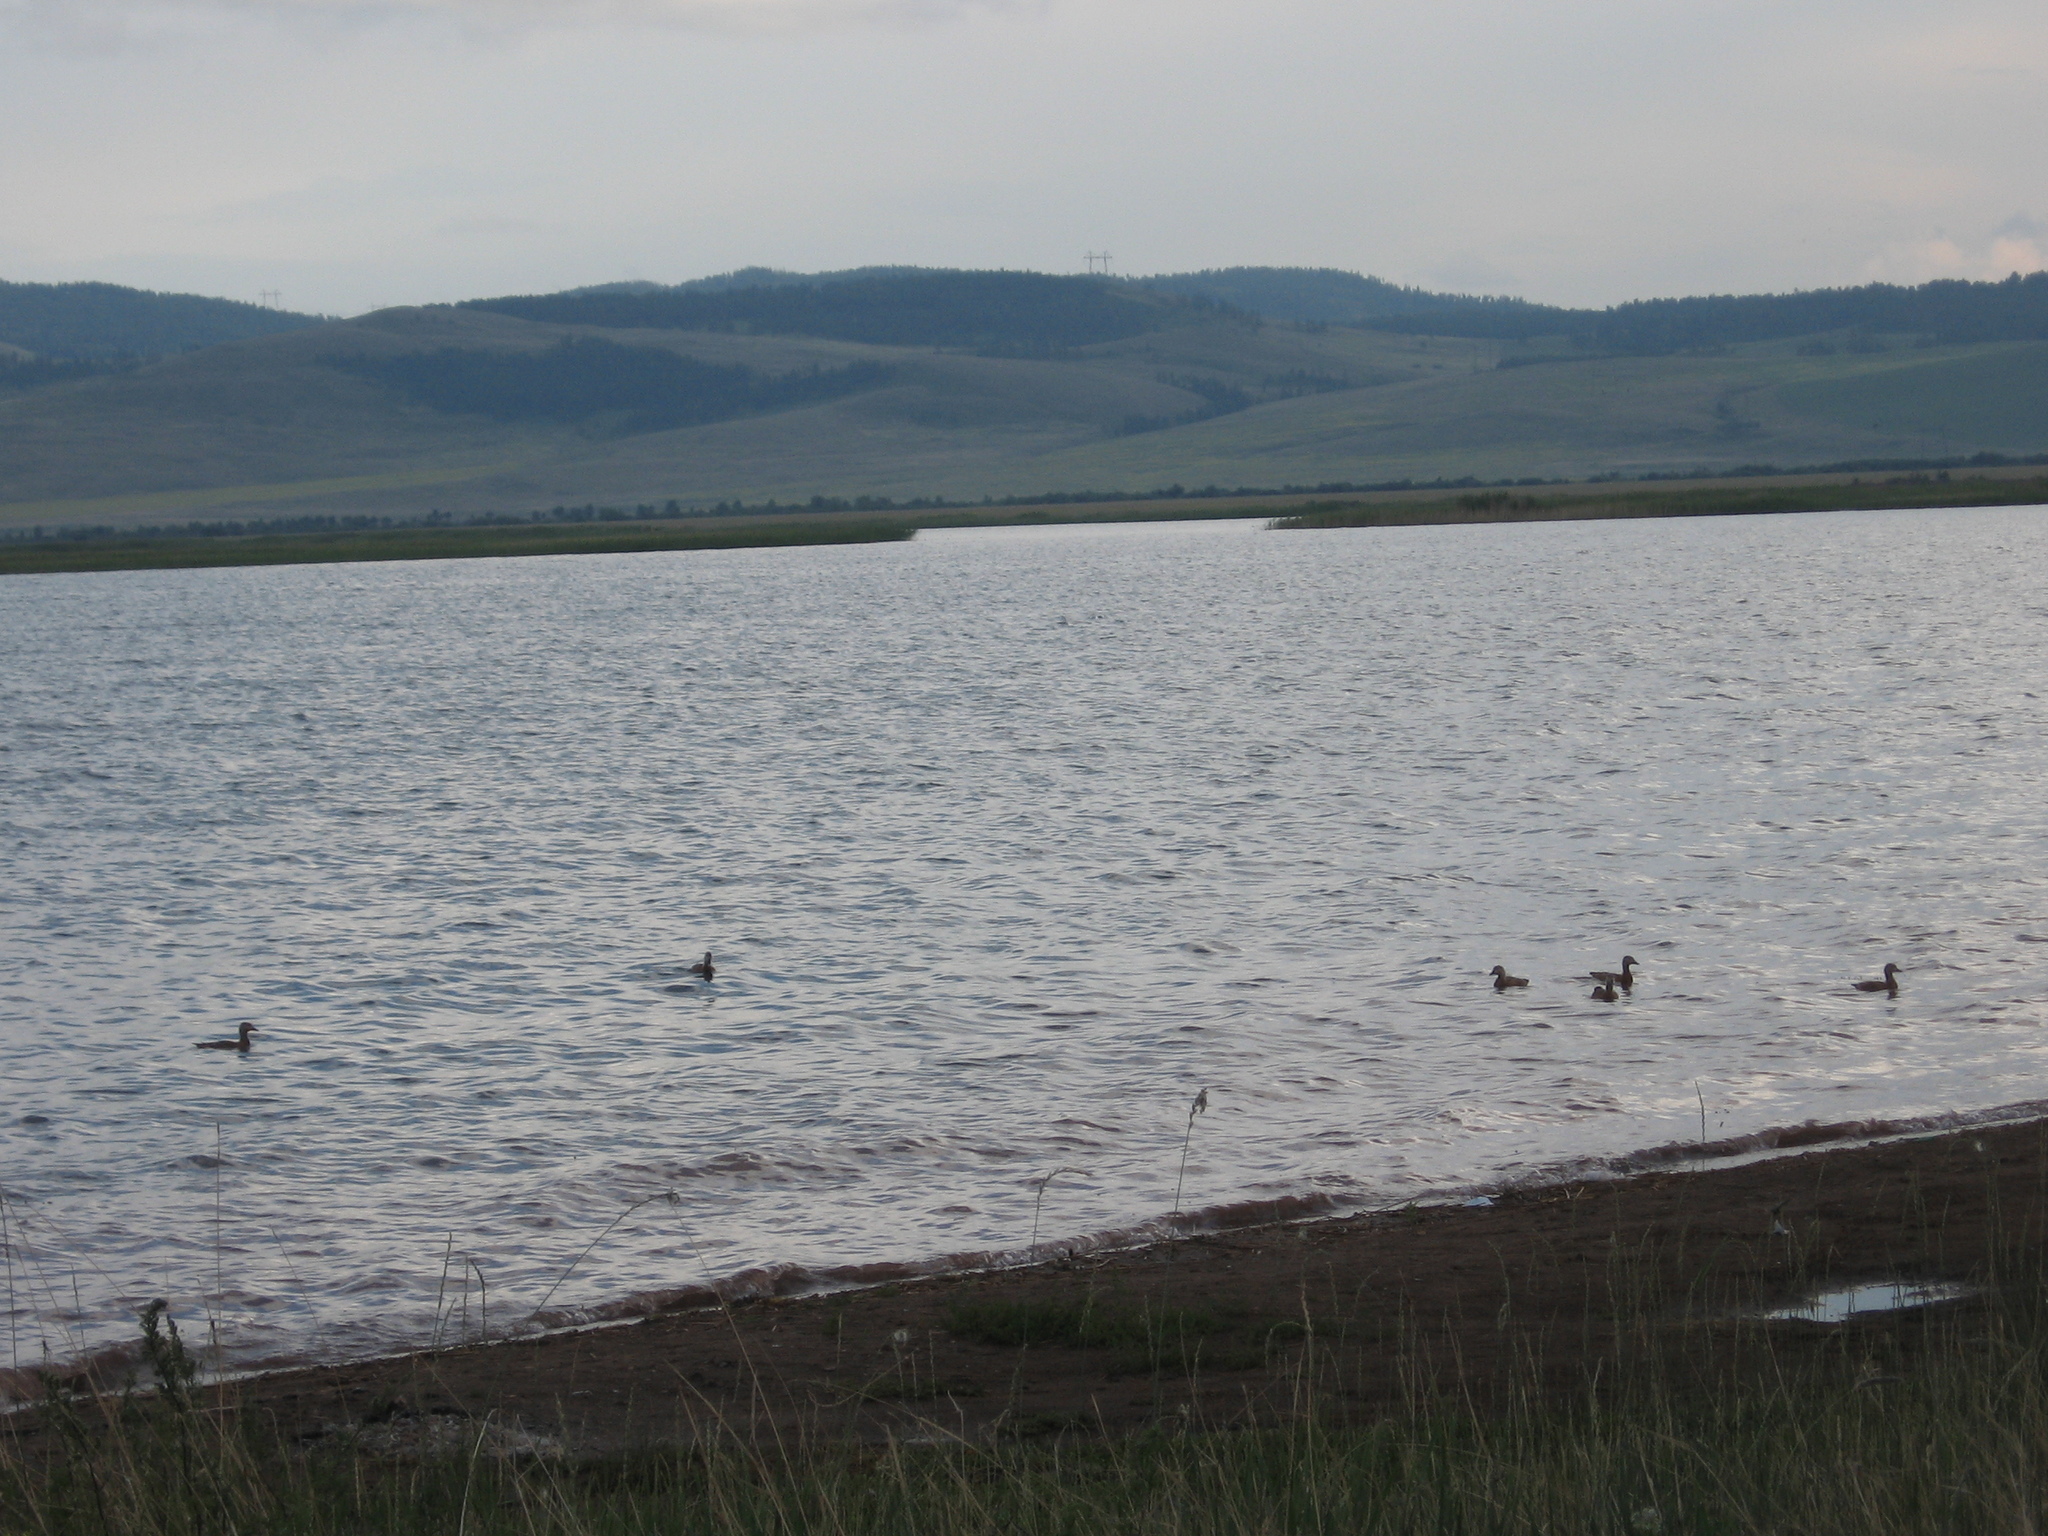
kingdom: Animalia
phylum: Chordata
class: Aves
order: Anseriformes
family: Anatidae
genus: Tadorna
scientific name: Tadorna ferruginea
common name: Ruddy shelduck
